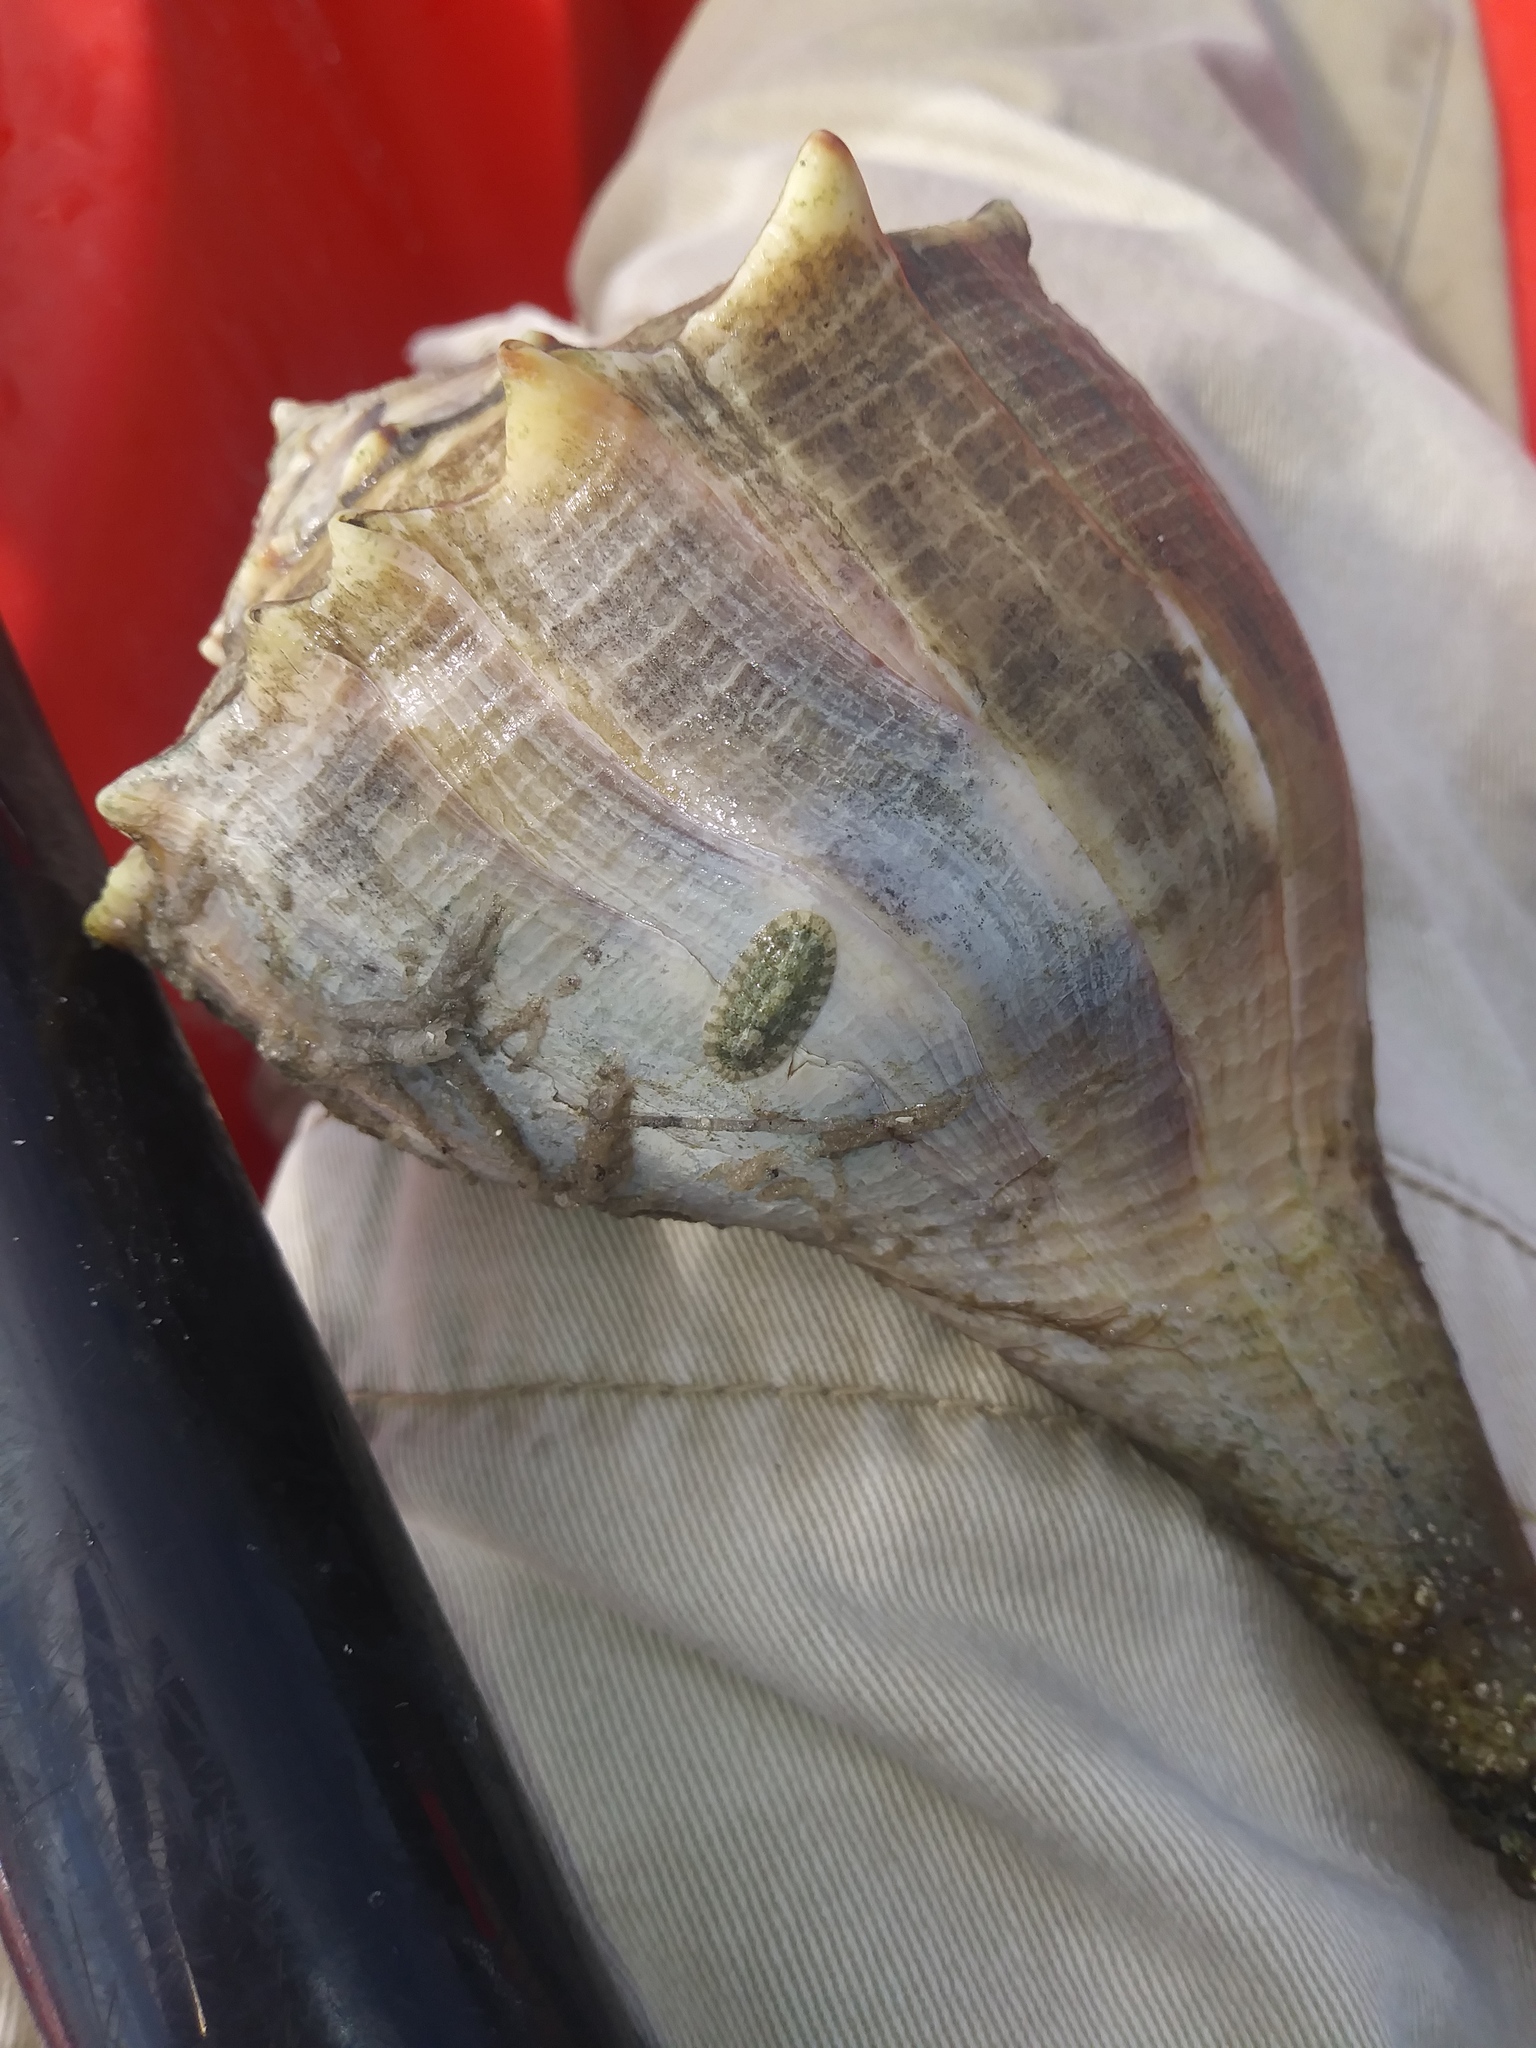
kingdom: Animalia
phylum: Mollusca
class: Gastropoda
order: Neogastropoda
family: Busyconidae
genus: Sinistrofulgur
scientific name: Sinistrofulgur sinistrum
